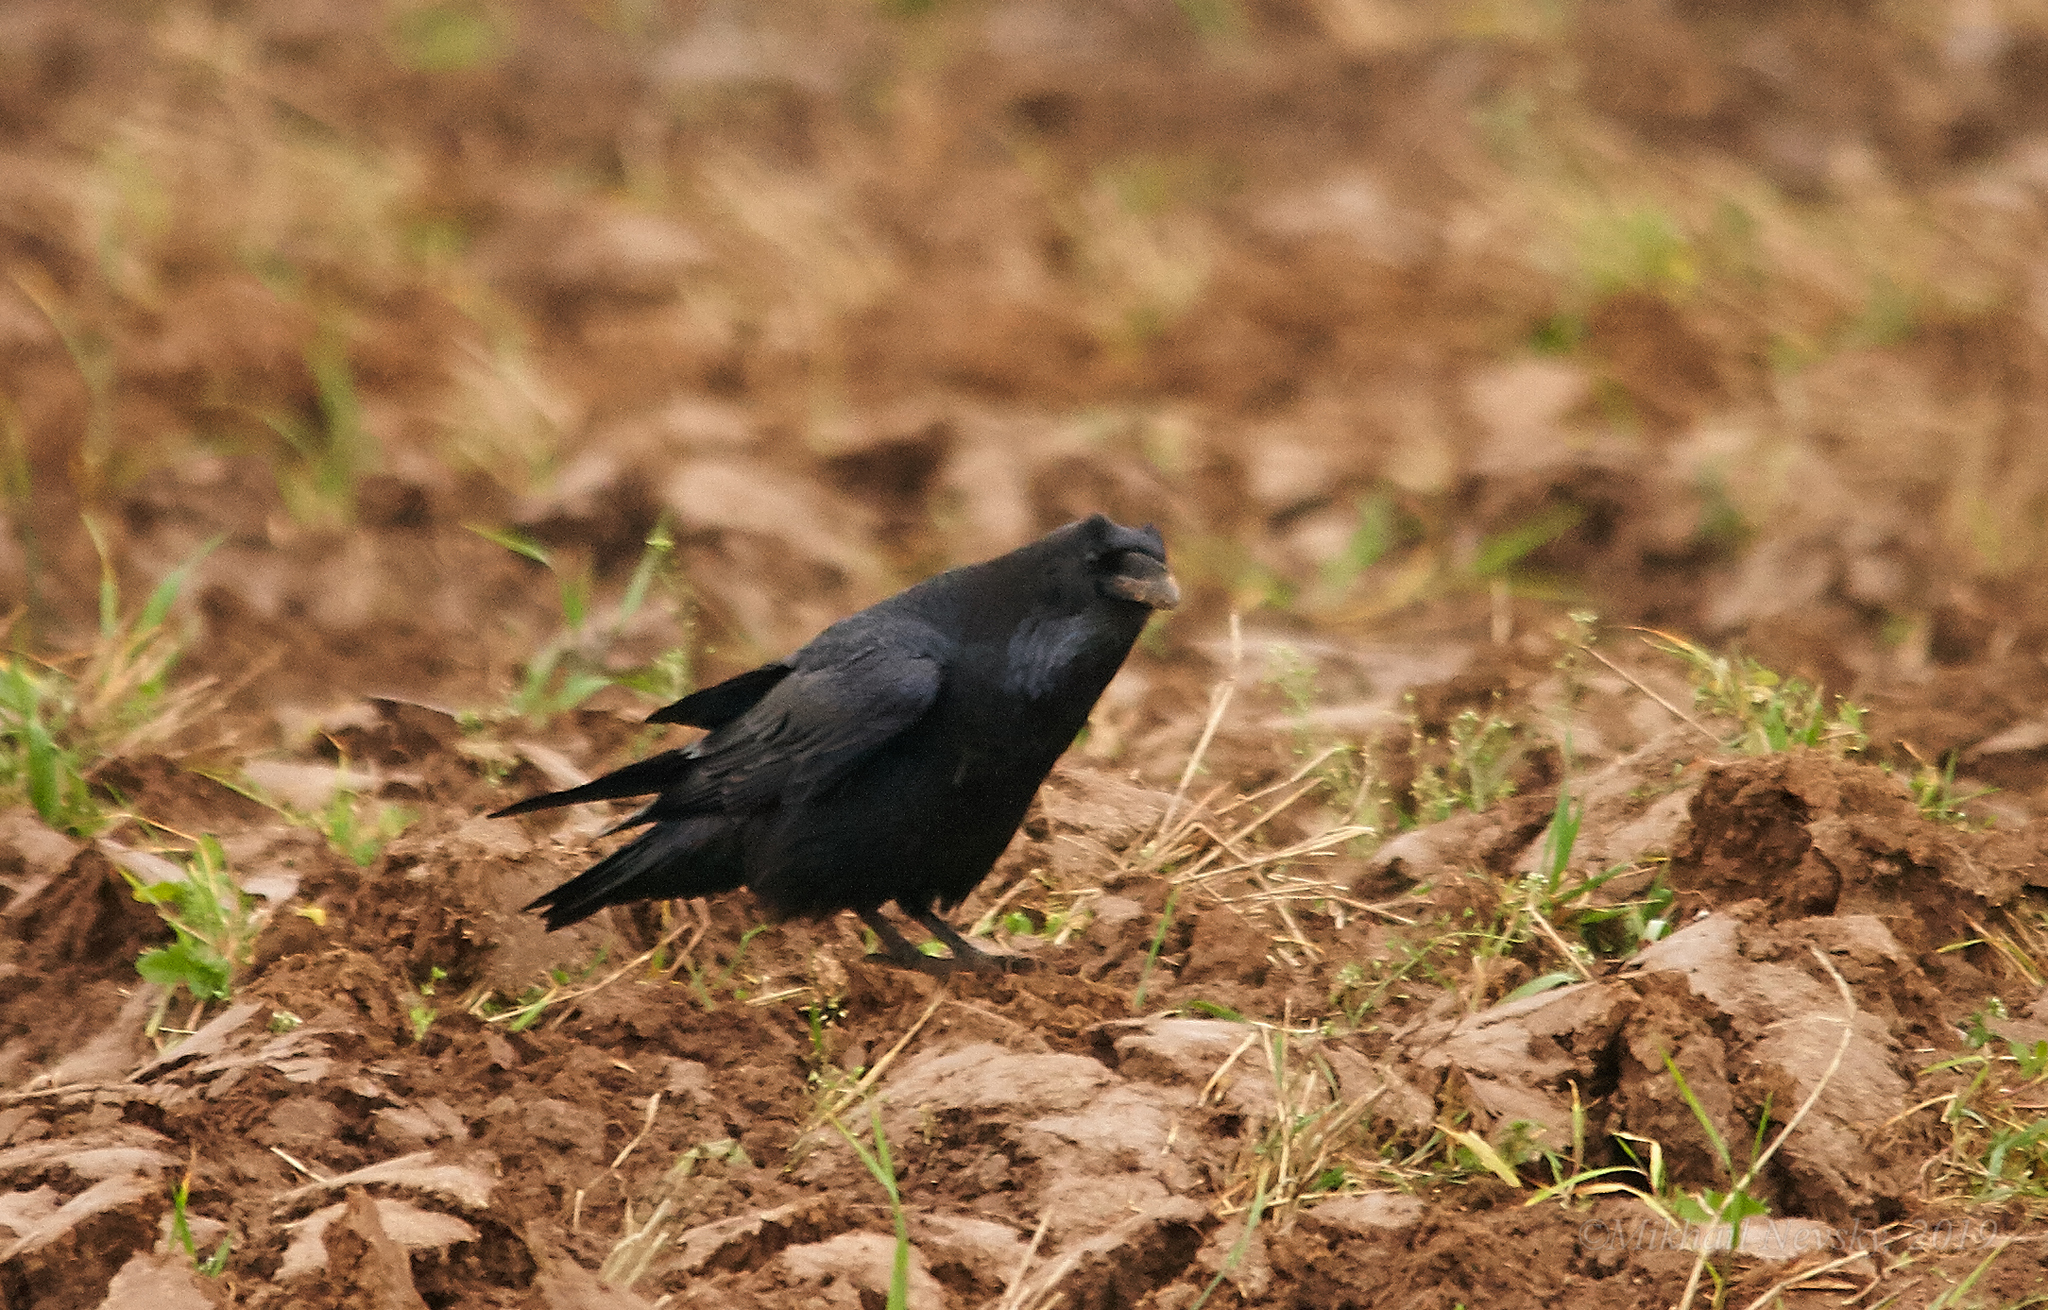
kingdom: Animalia
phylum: Chordata
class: Aves
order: Passeriformes
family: Corvidae
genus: Corvus
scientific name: Corvus corax
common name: Common raven
